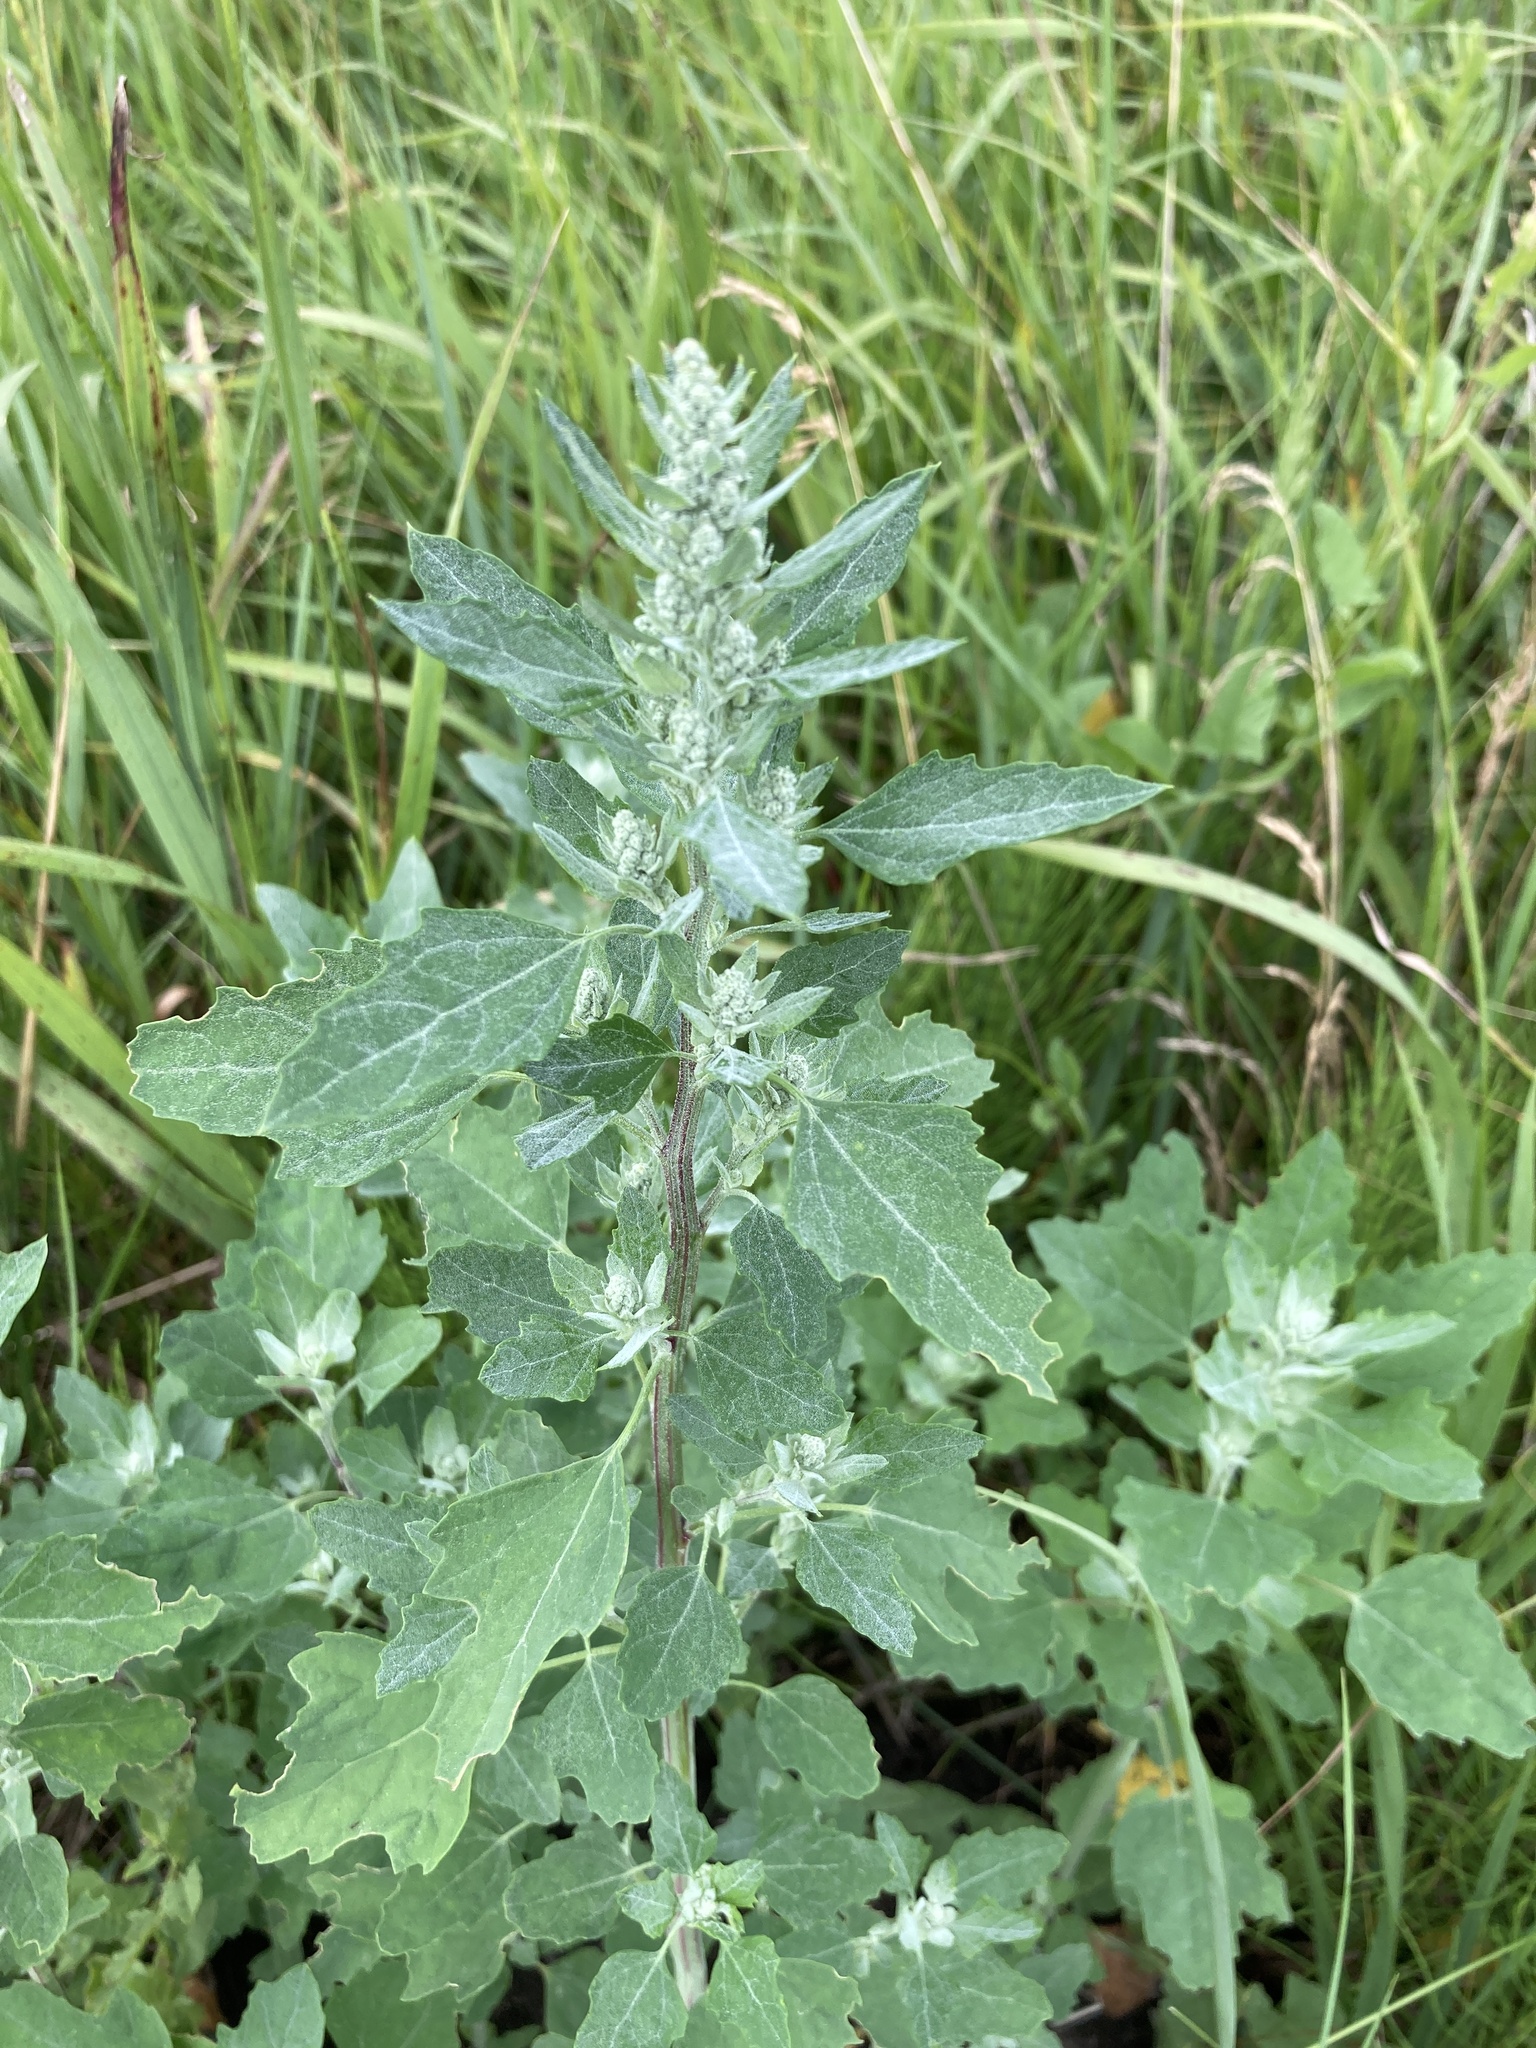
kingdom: Plantae
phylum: Tracheophyta
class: Magnoliopsida
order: Caryophyllales
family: Amaranthaceae
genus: Chenopodium
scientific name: Chenopodium album
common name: Fat-hen
